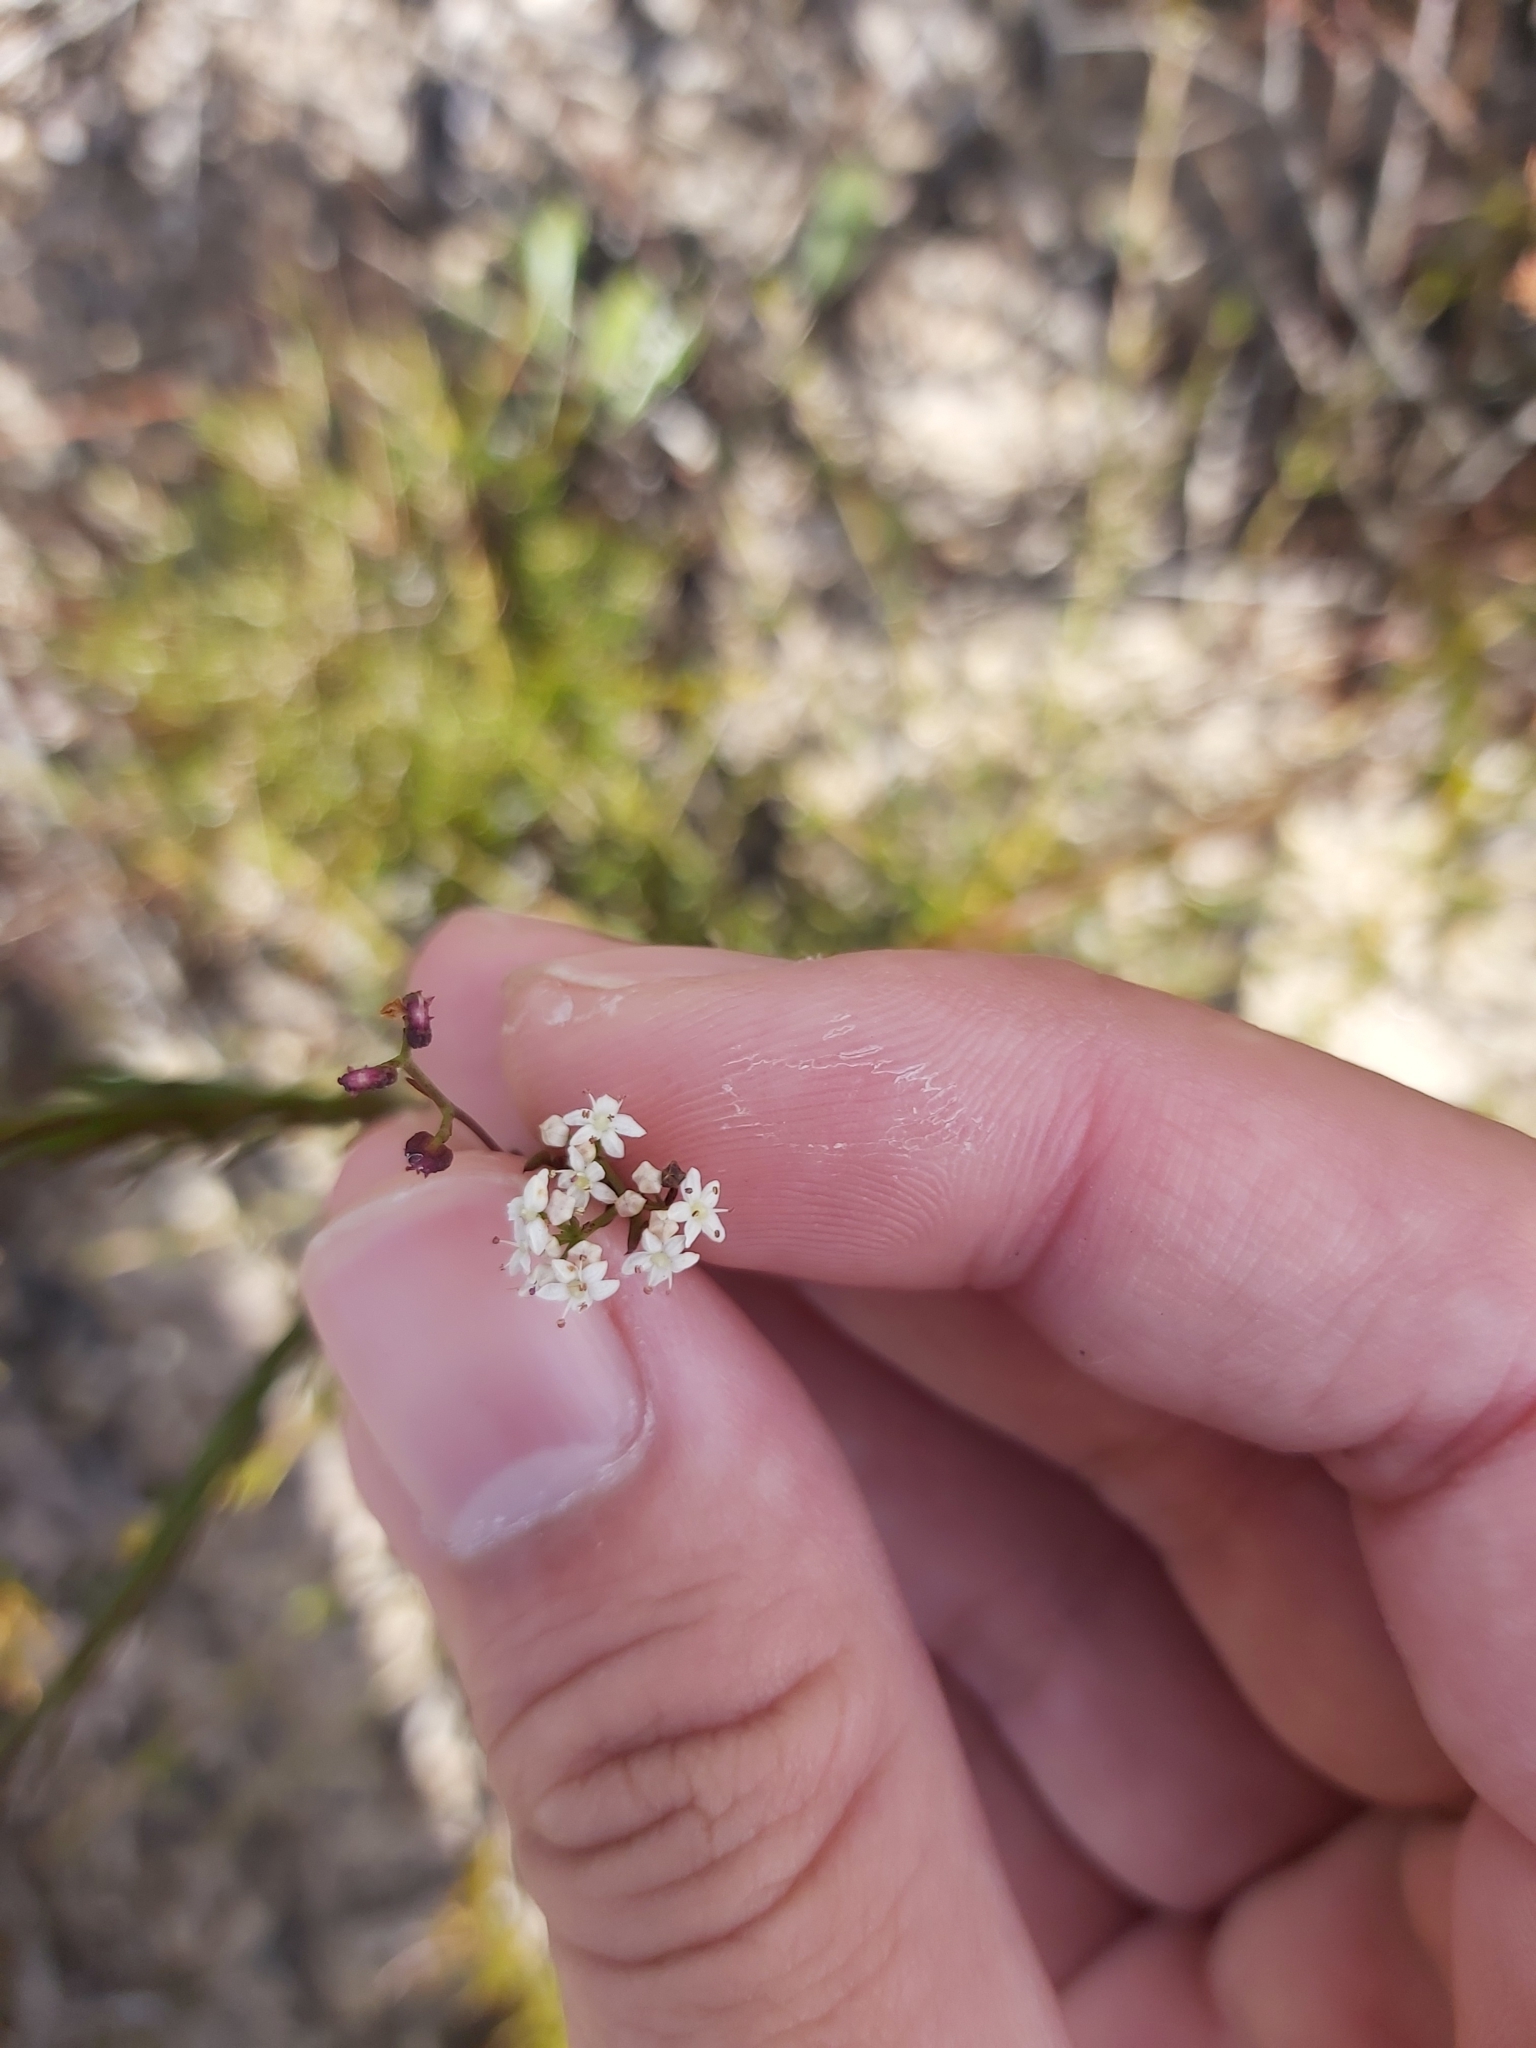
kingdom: Plantae
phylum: Tracheophyta
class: Magnoliopsida
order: Apiales
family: Apiaceae
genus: Platysace
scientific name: Platysace linearifolia
